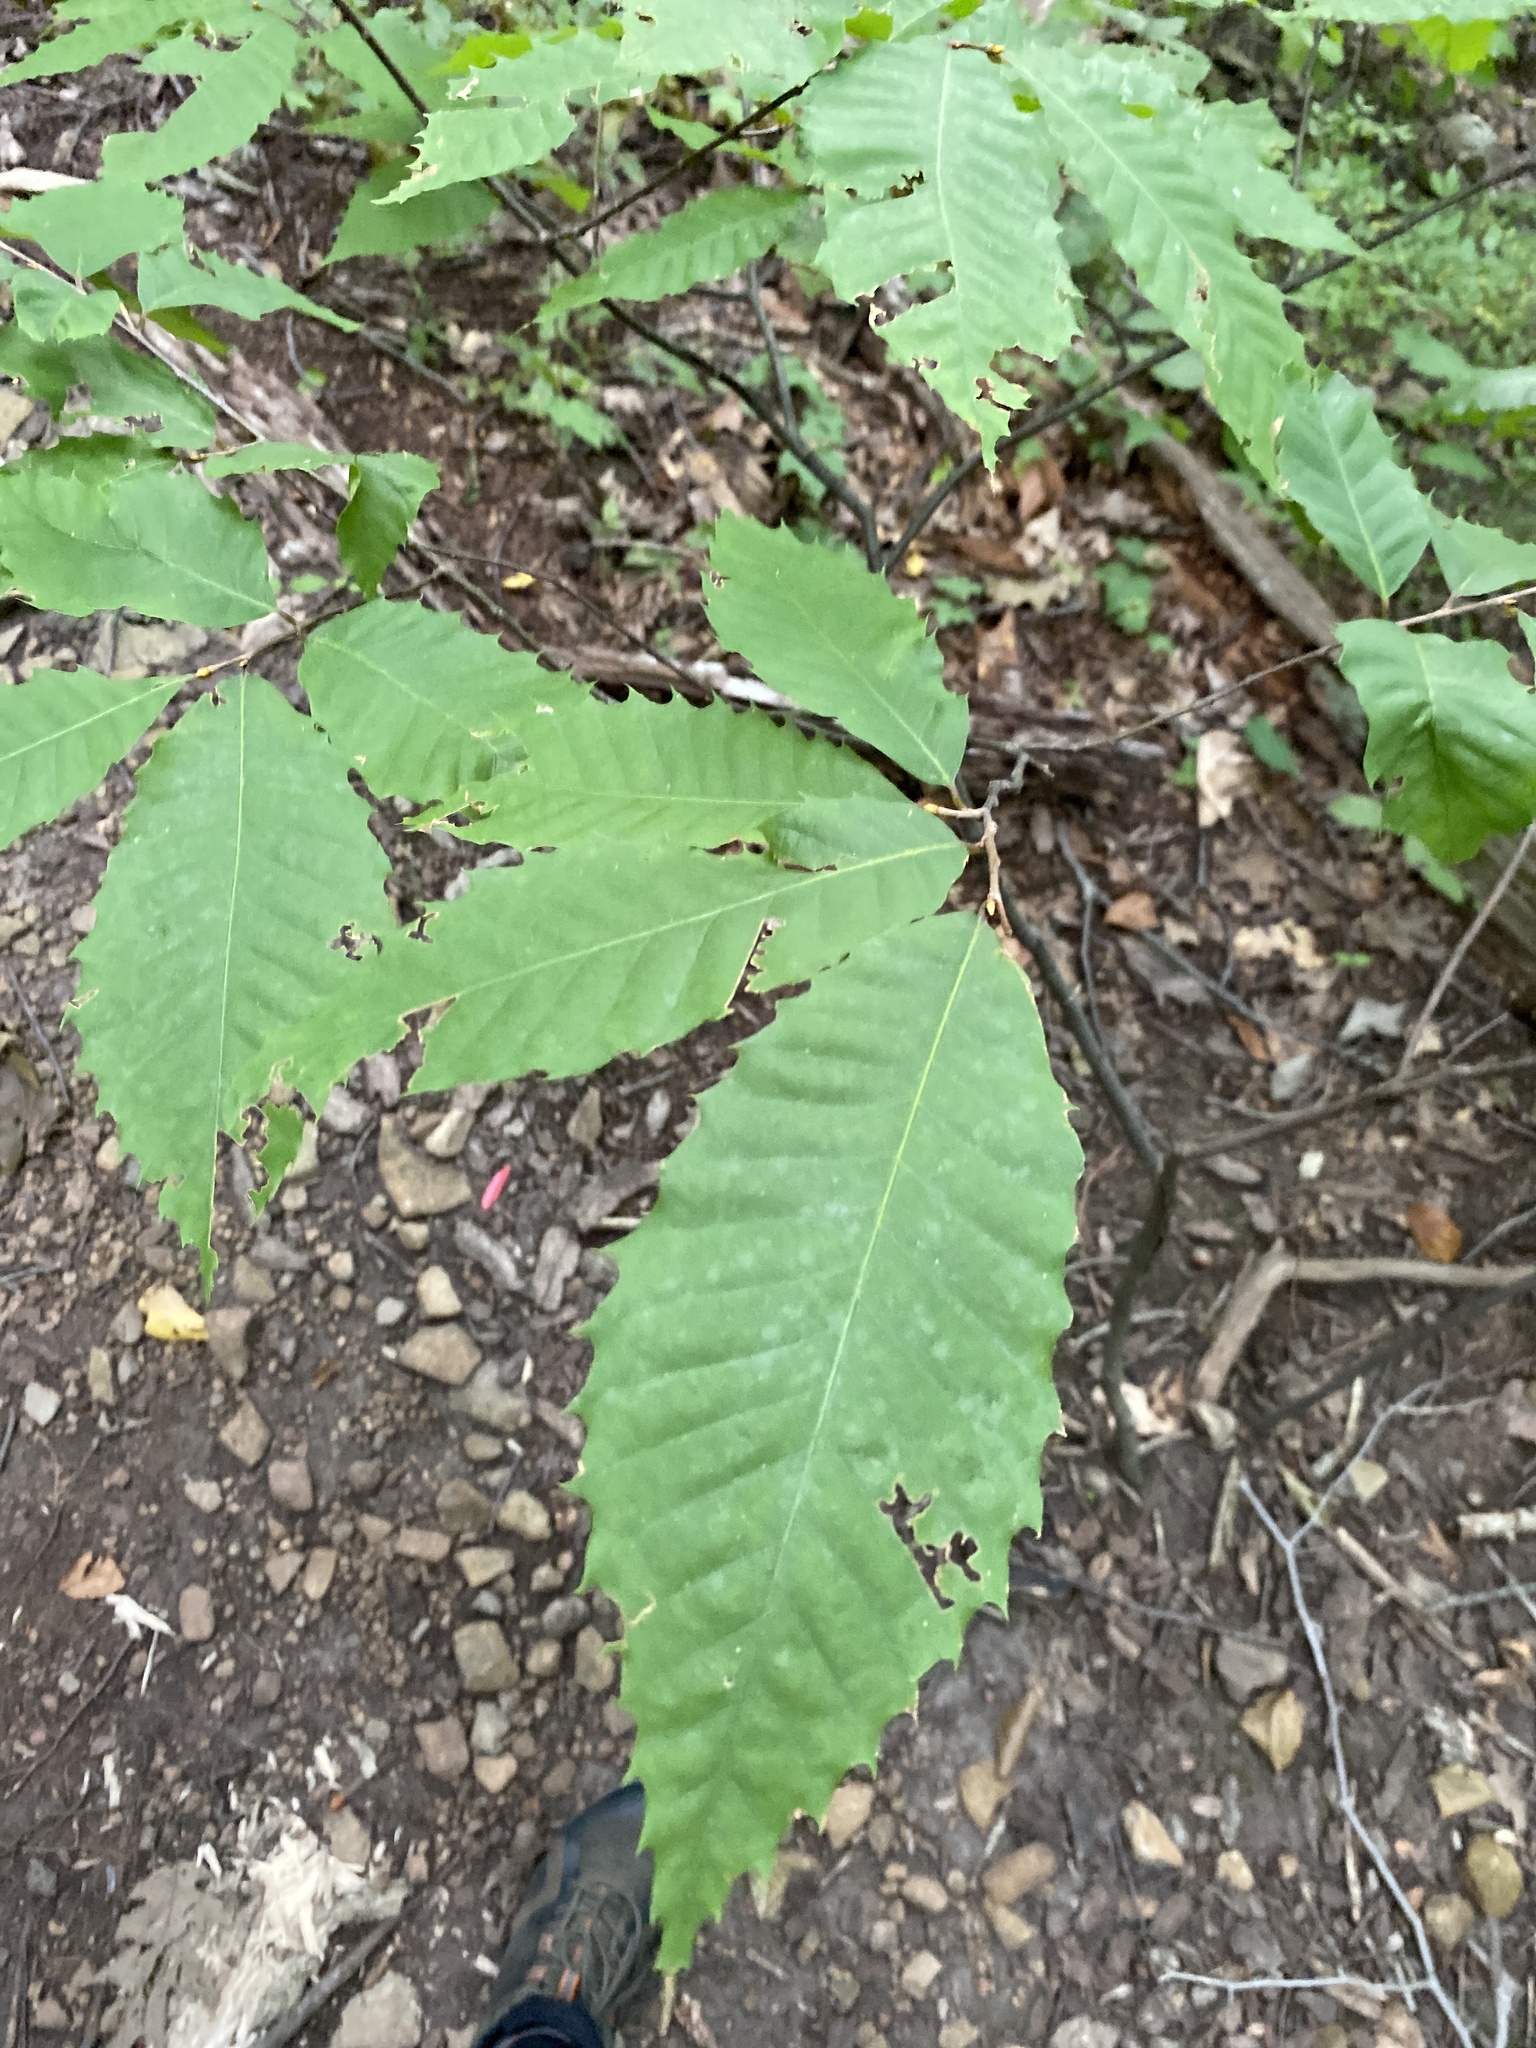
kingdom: Plantae
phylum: Tracheophyta
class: Magnoliopsida
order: Fagales
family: Fagaceae
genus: Castanea
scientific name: Castanea dentata
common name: American chestnut
